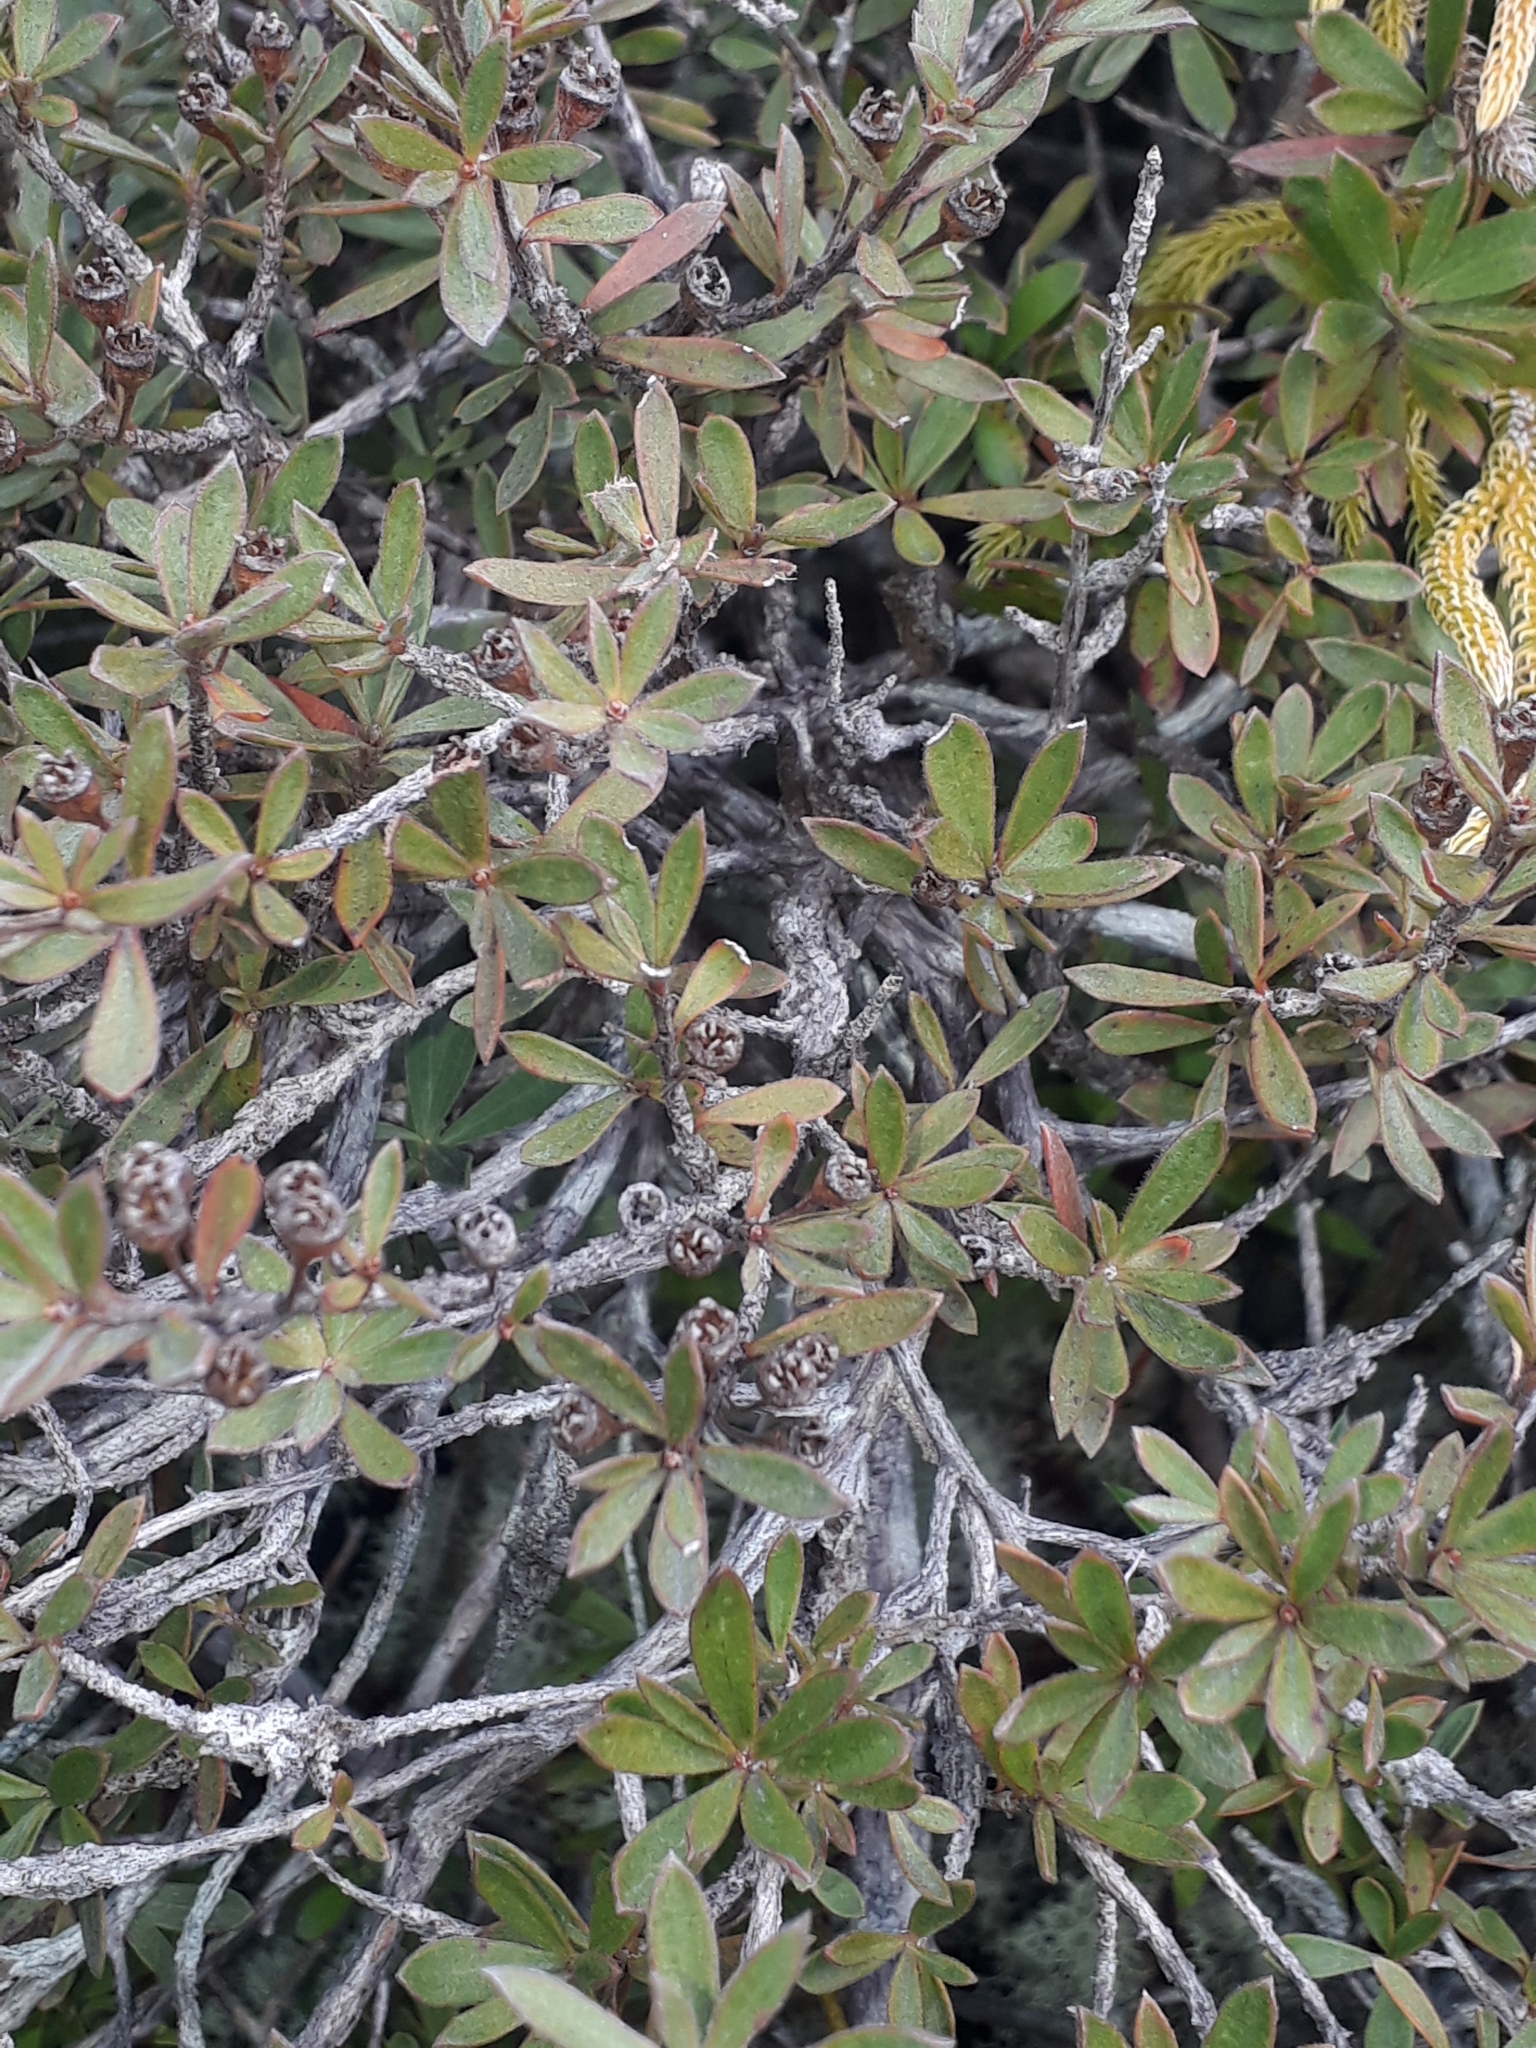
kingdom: Plantae
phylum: Tracheophyta
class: Magnoliopsida
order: Myrtales
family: Myrtaceae
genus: Kunzea
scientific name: Kunzea sinclairii
